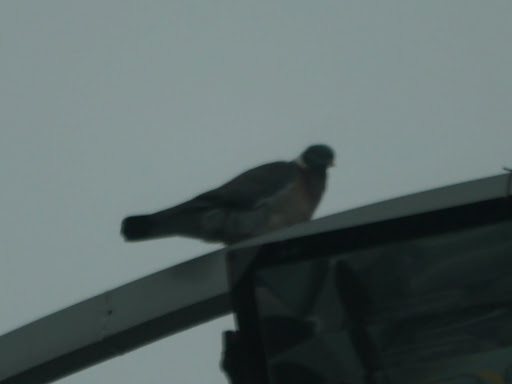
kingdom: Animalia
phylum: Chordata
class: Aves
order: Columbiformes
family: Columbidae
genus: Columba
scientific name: Columba palumbus
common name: Common wood pigeon
